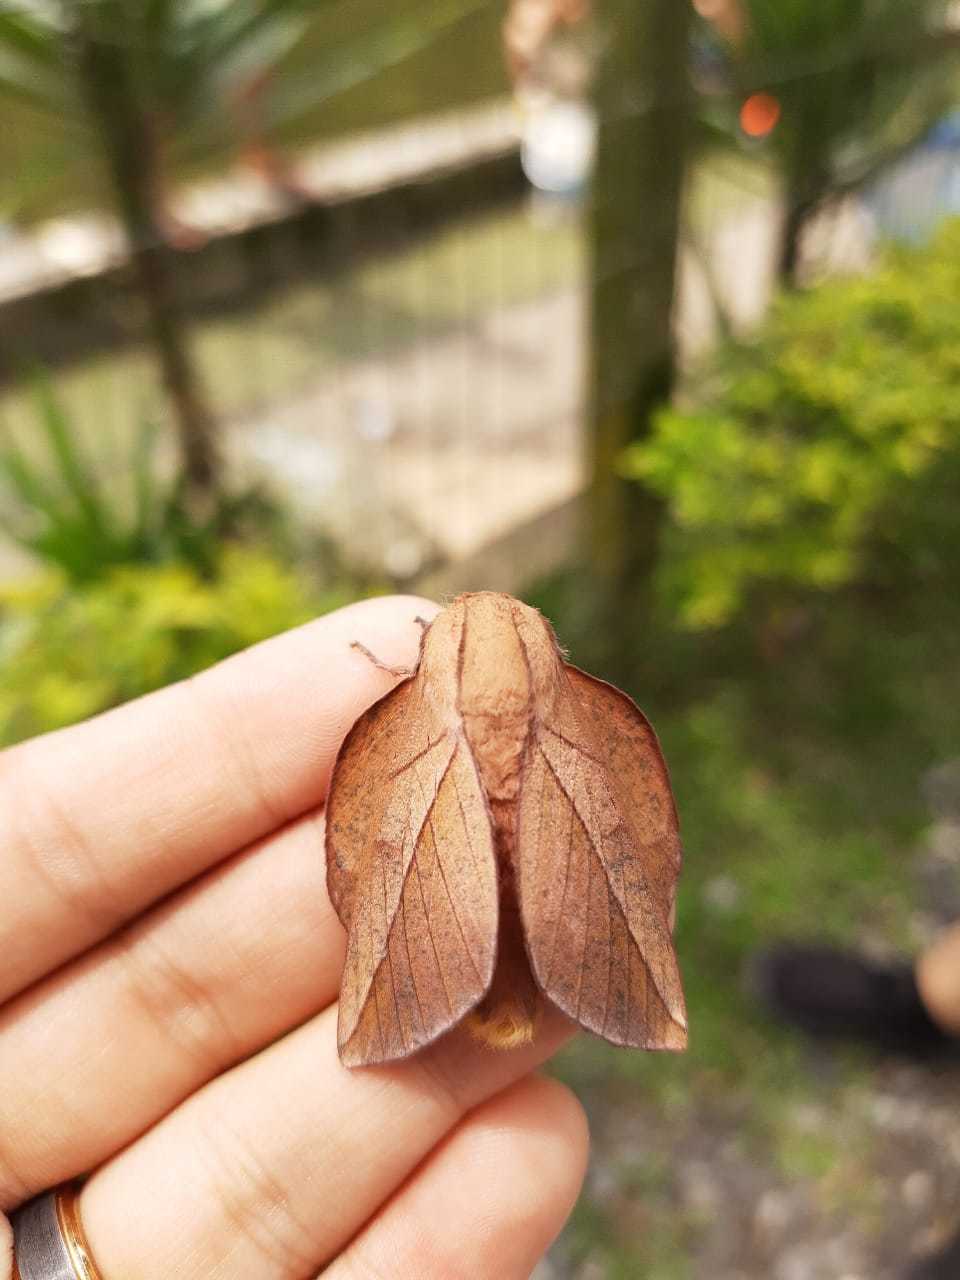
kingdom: Animalia
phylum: Arthropoda
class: Insecta
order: Lepidoptera
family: Saturniidae
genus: Oiticella
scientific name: Oiticella luteciae
